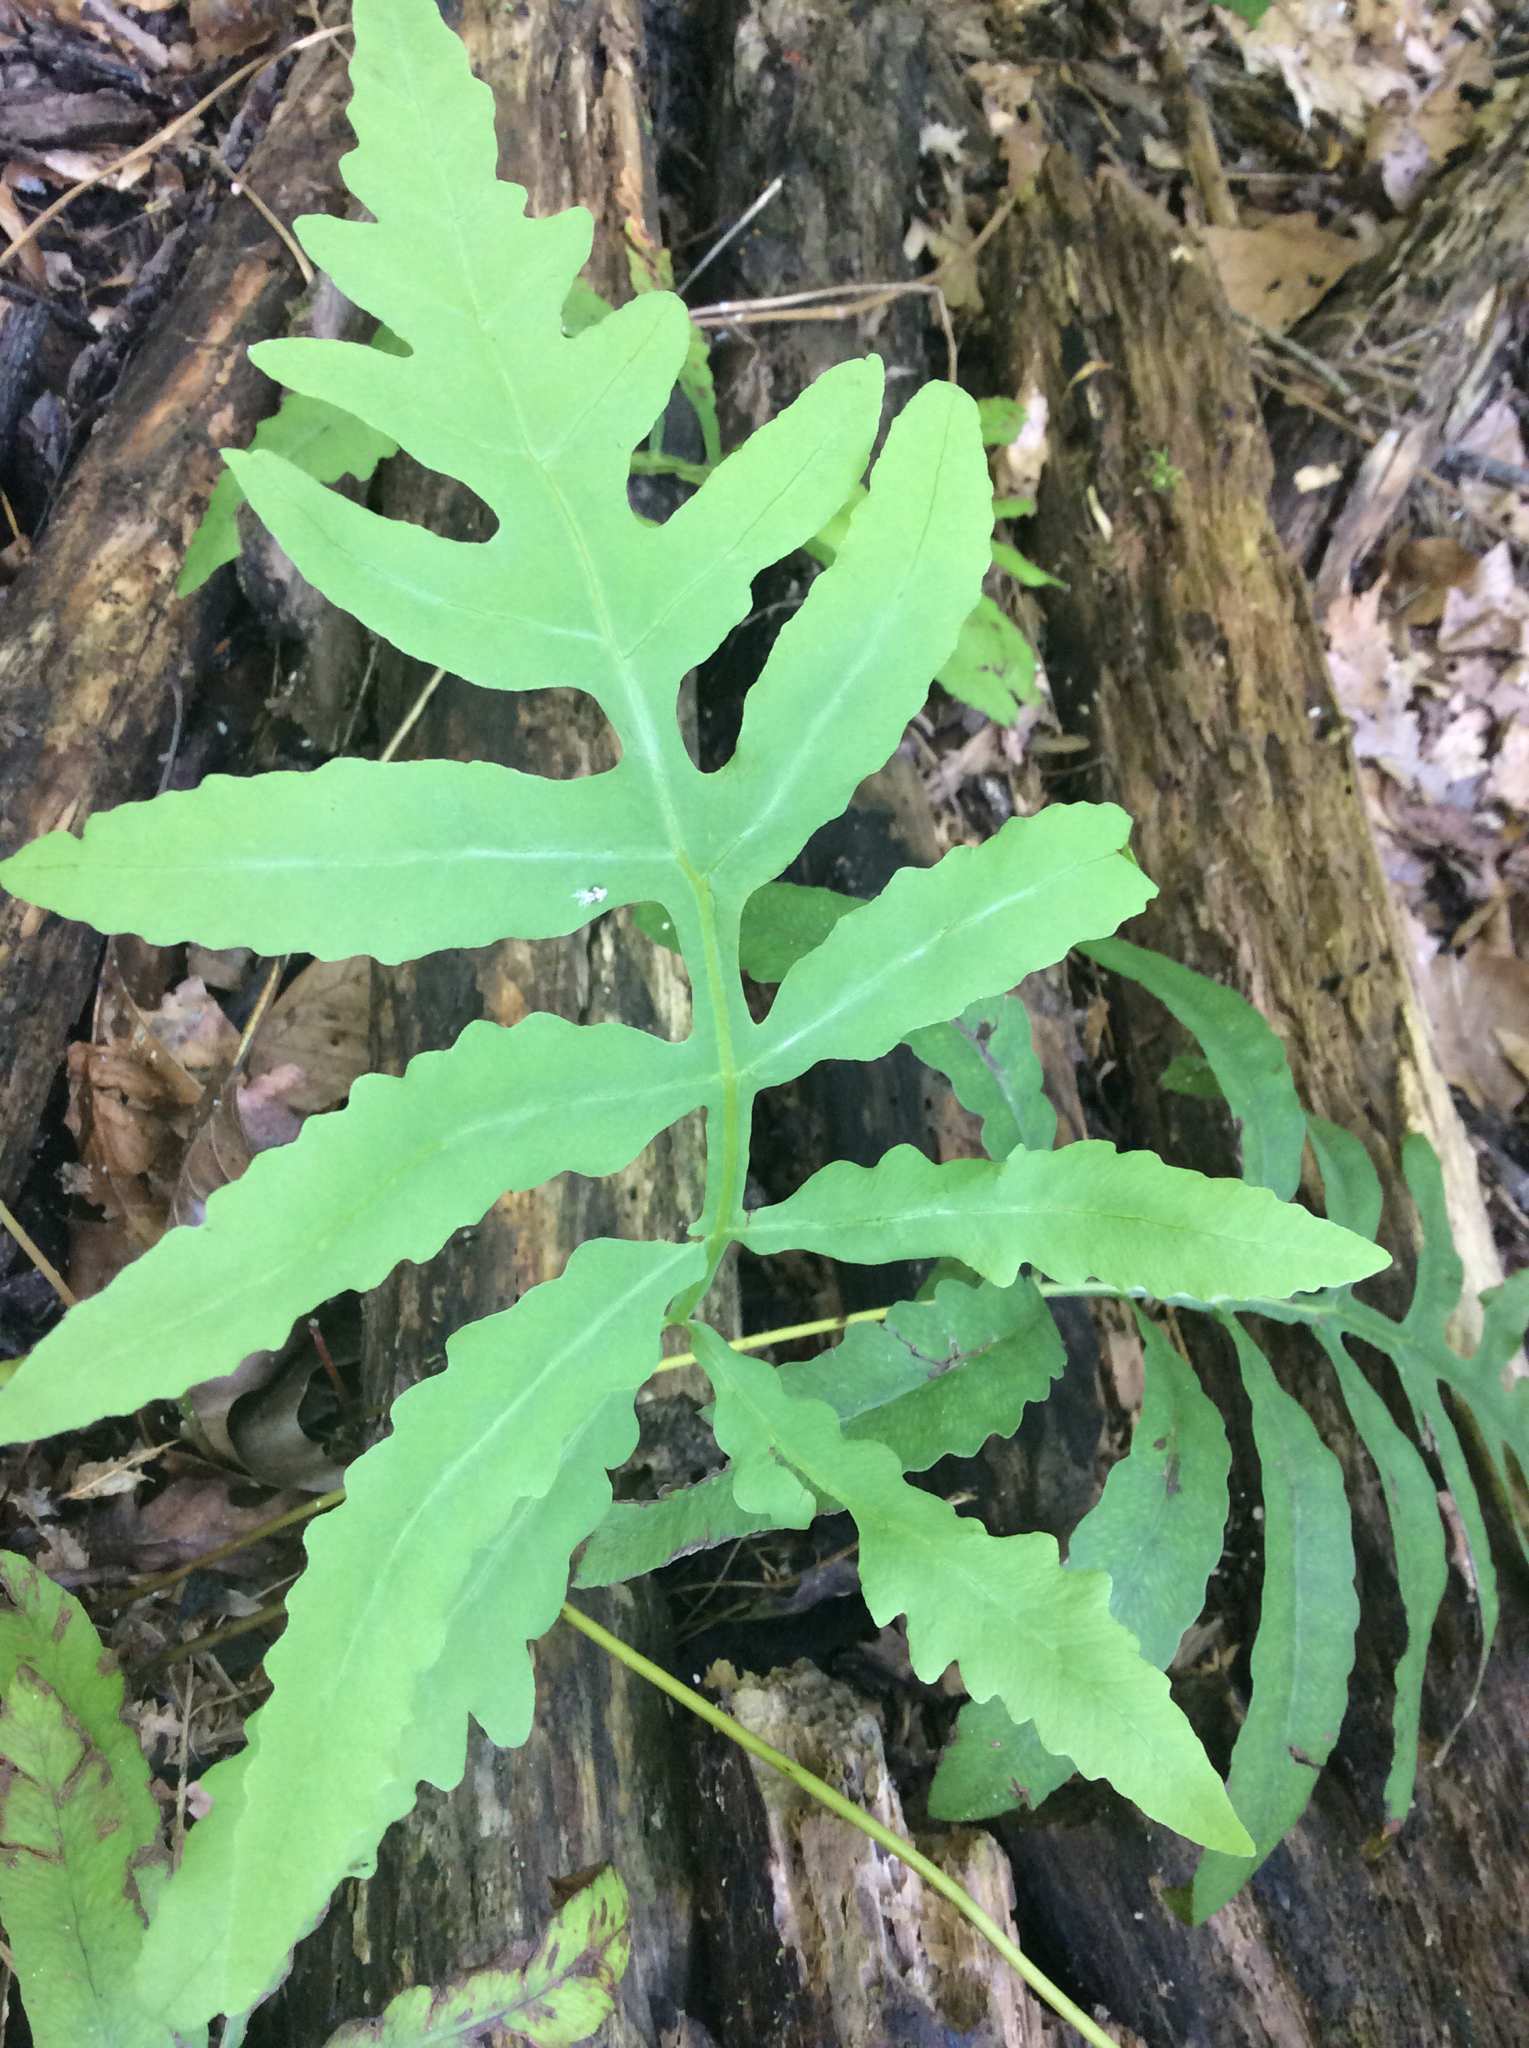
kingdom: Plantae
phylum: Tracheophyta
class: Polypodiopsida
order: Polypodiales
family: Onocleaceae
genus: Onoclea
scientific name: Onoclea sensibilis
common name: Sensitive fern
